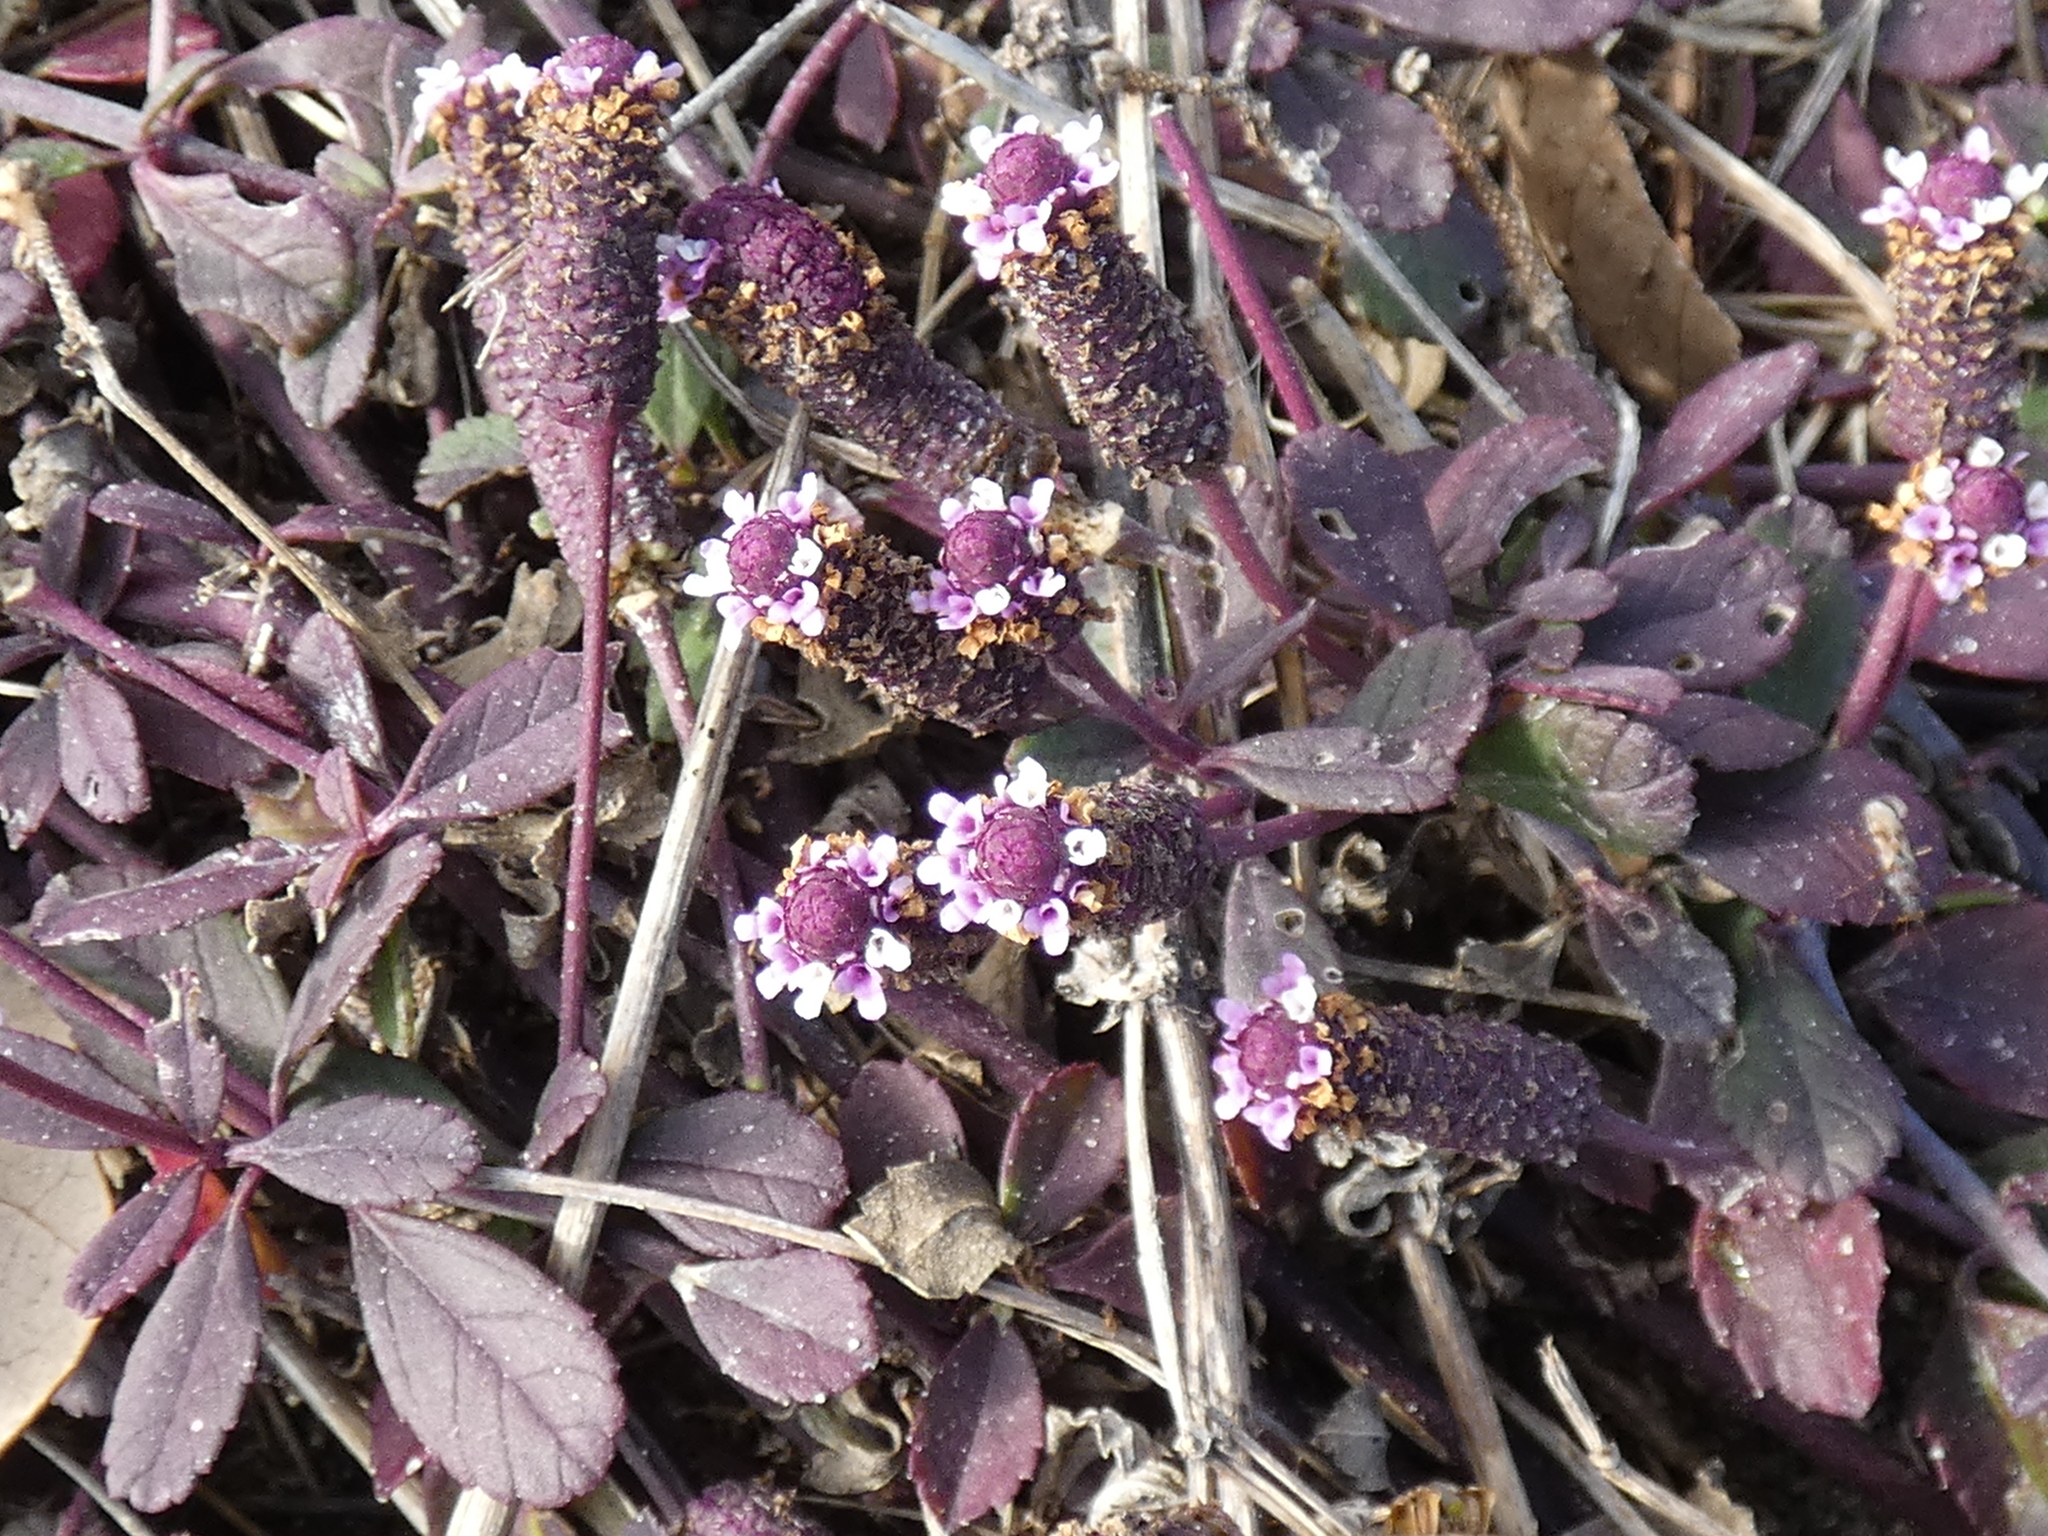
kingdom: Plantae
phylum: Tracheophyta
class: Magnoliopsida
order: Lamiales
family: Verbenaceae
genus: Phyla
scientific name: Phyla nodiflora
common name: Frogfruit
